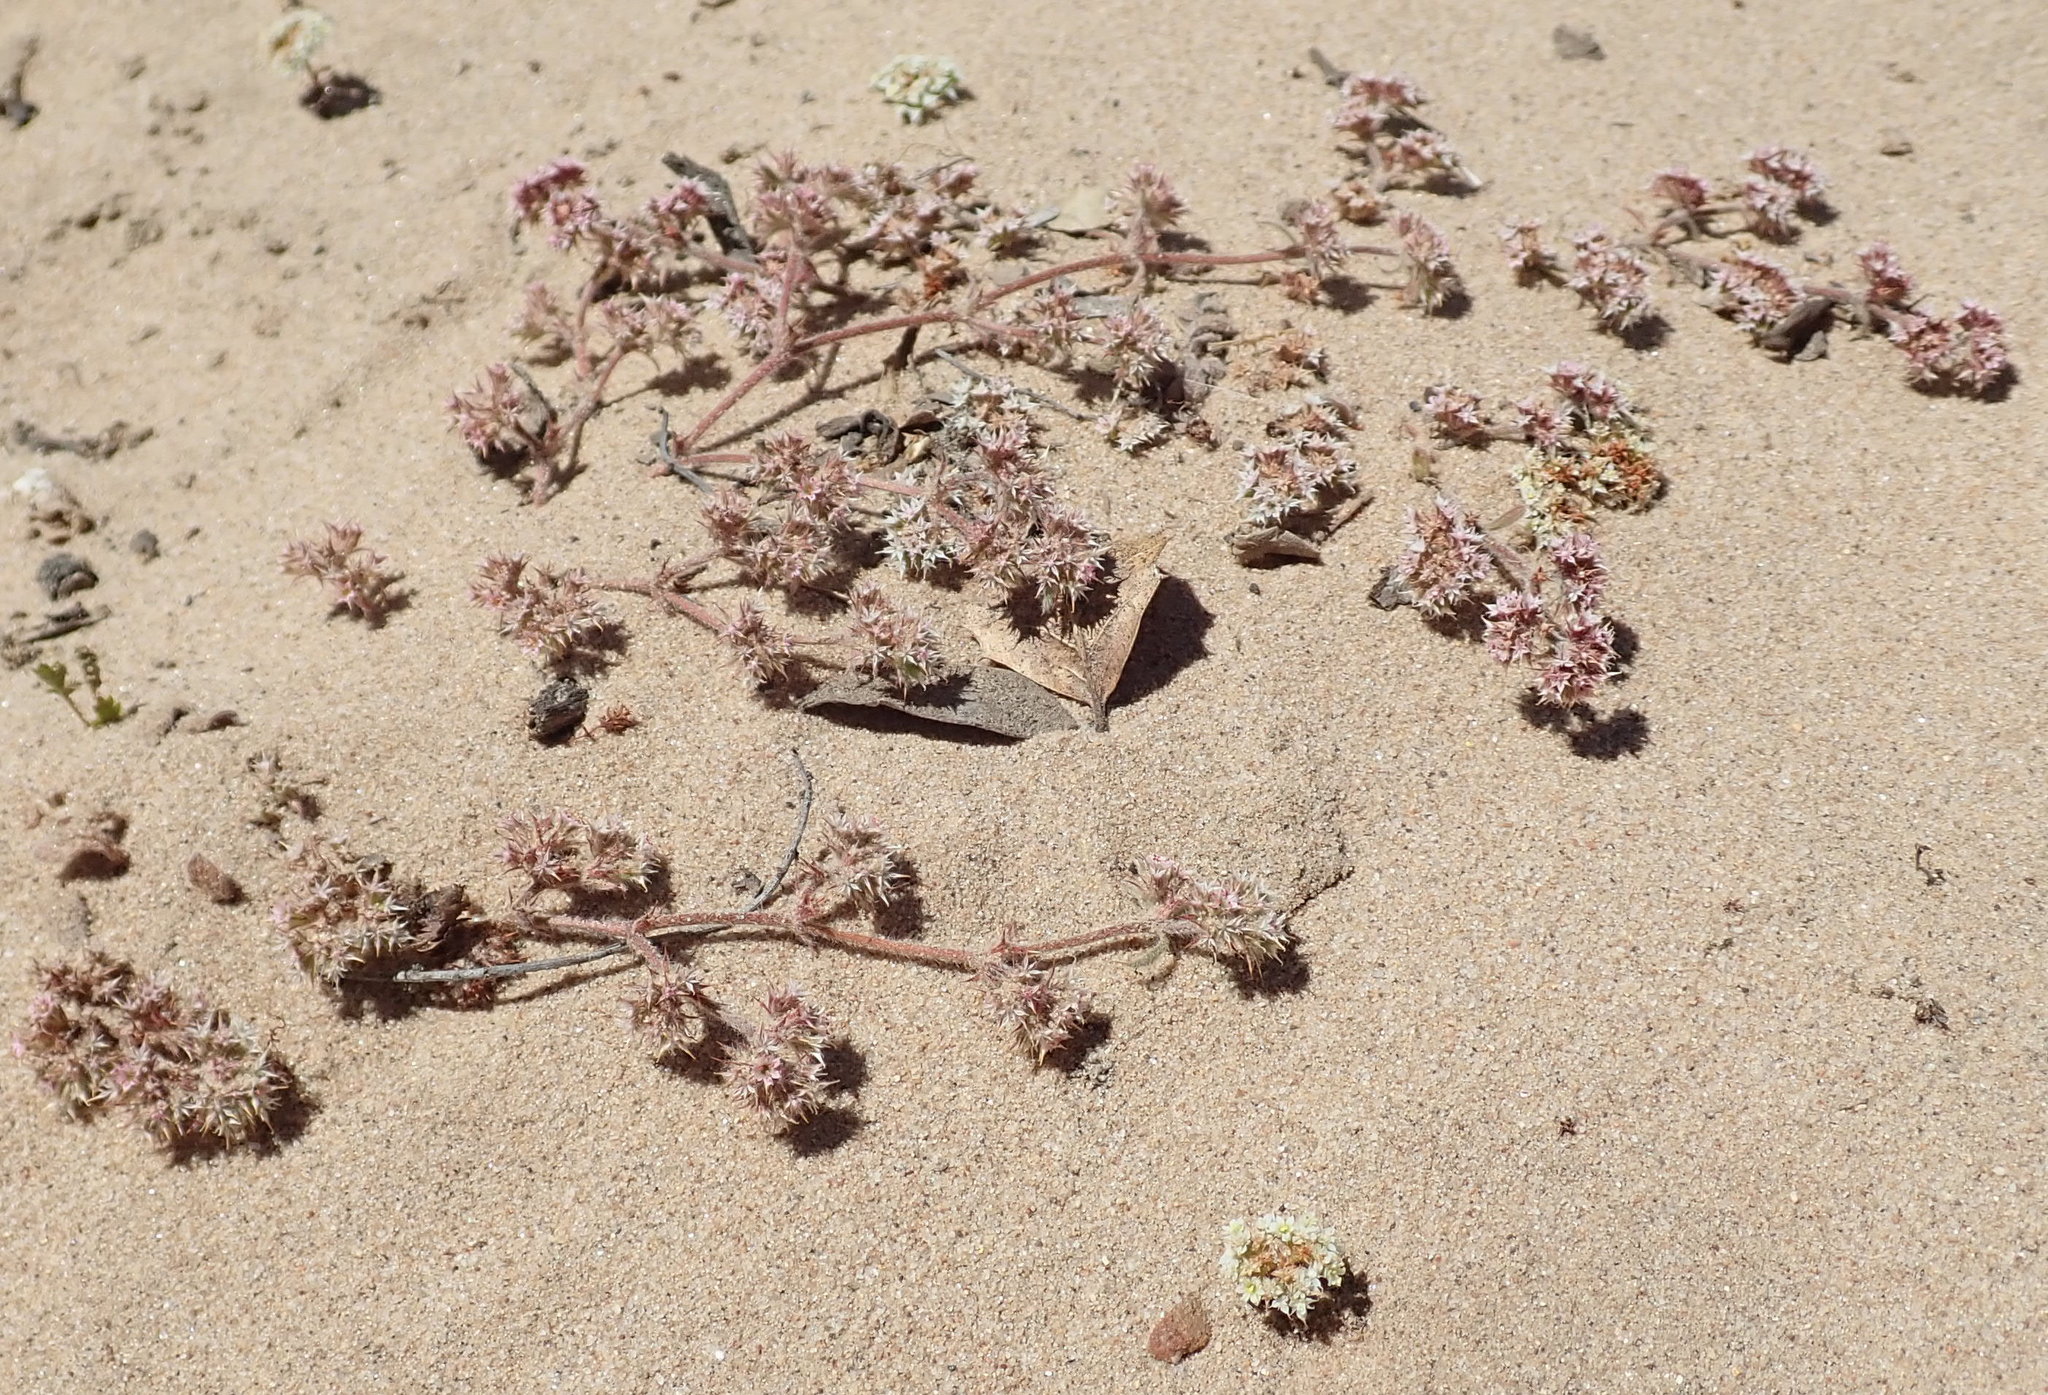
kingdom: Plantae
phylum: Tracheophyta
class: Magnoliopsida
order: Caryophyllales
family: Polygonaceae
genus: Chorizanthe
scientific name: Chorizanthe pungens
